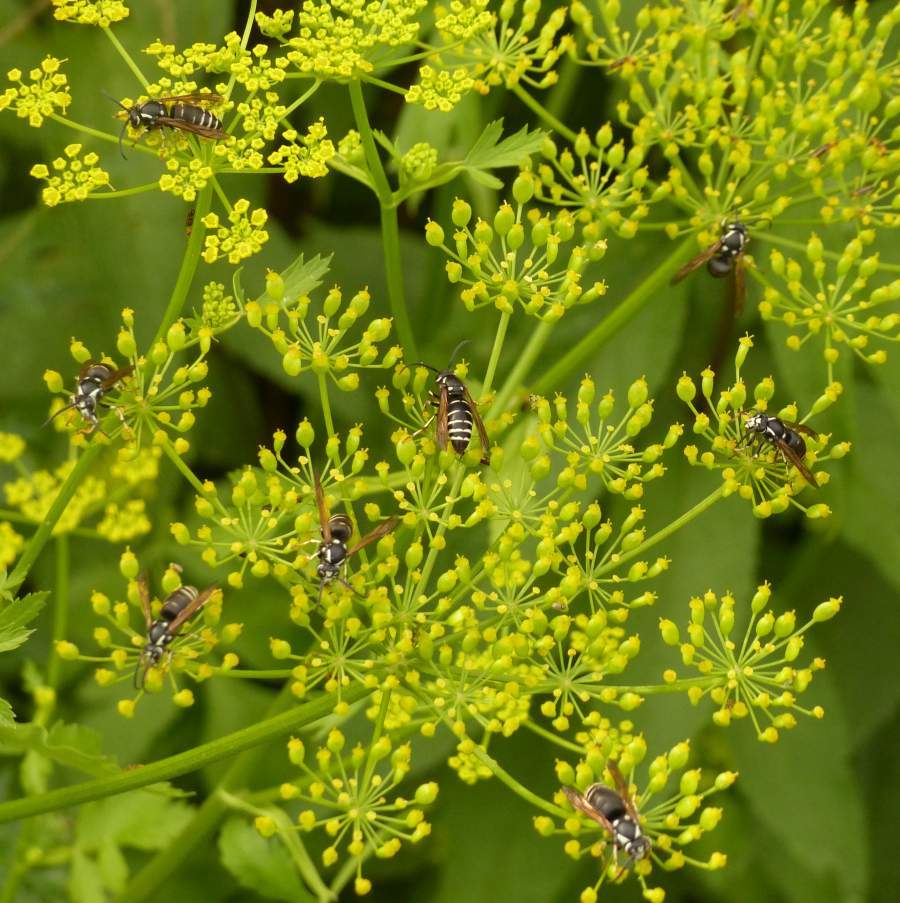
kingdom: Animalia
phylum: Arthropoda
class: Insecta
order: Hymenoptera
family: Vespidae
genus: Dolichovespula
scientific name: Dolichovespula adulterina
